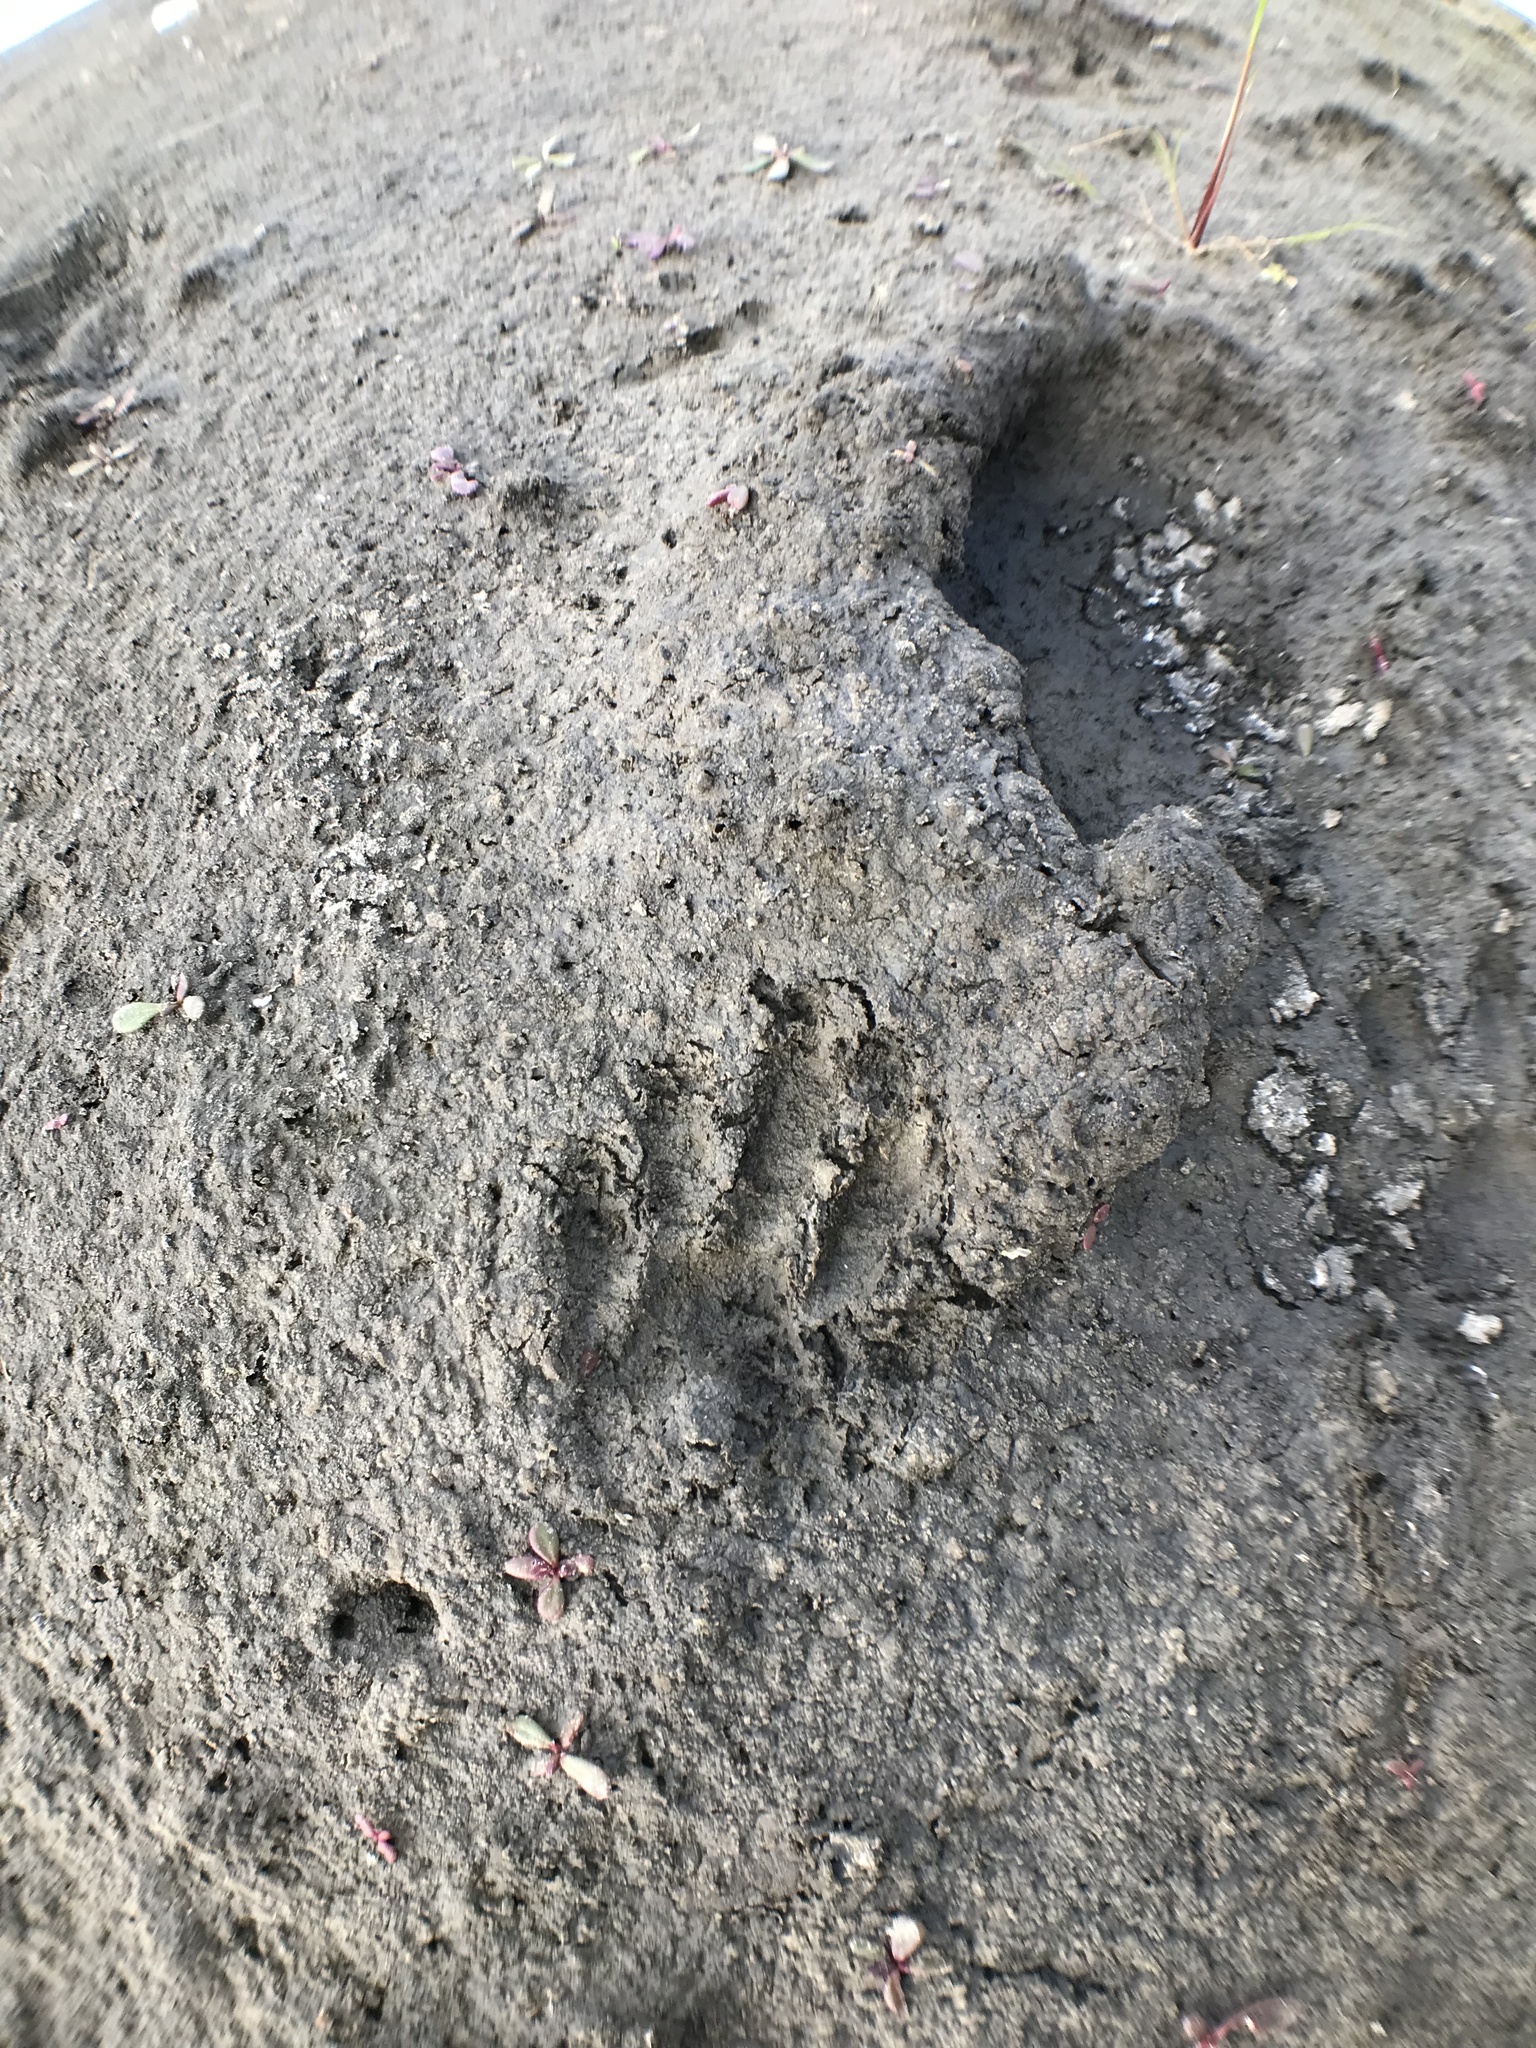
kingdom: Animalia
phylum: Chordata
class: Mammalia
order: Carnivora
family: Procyonidae
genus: Procyon
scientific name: Procyon cancrivorus
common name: Crab-eating raccoon
